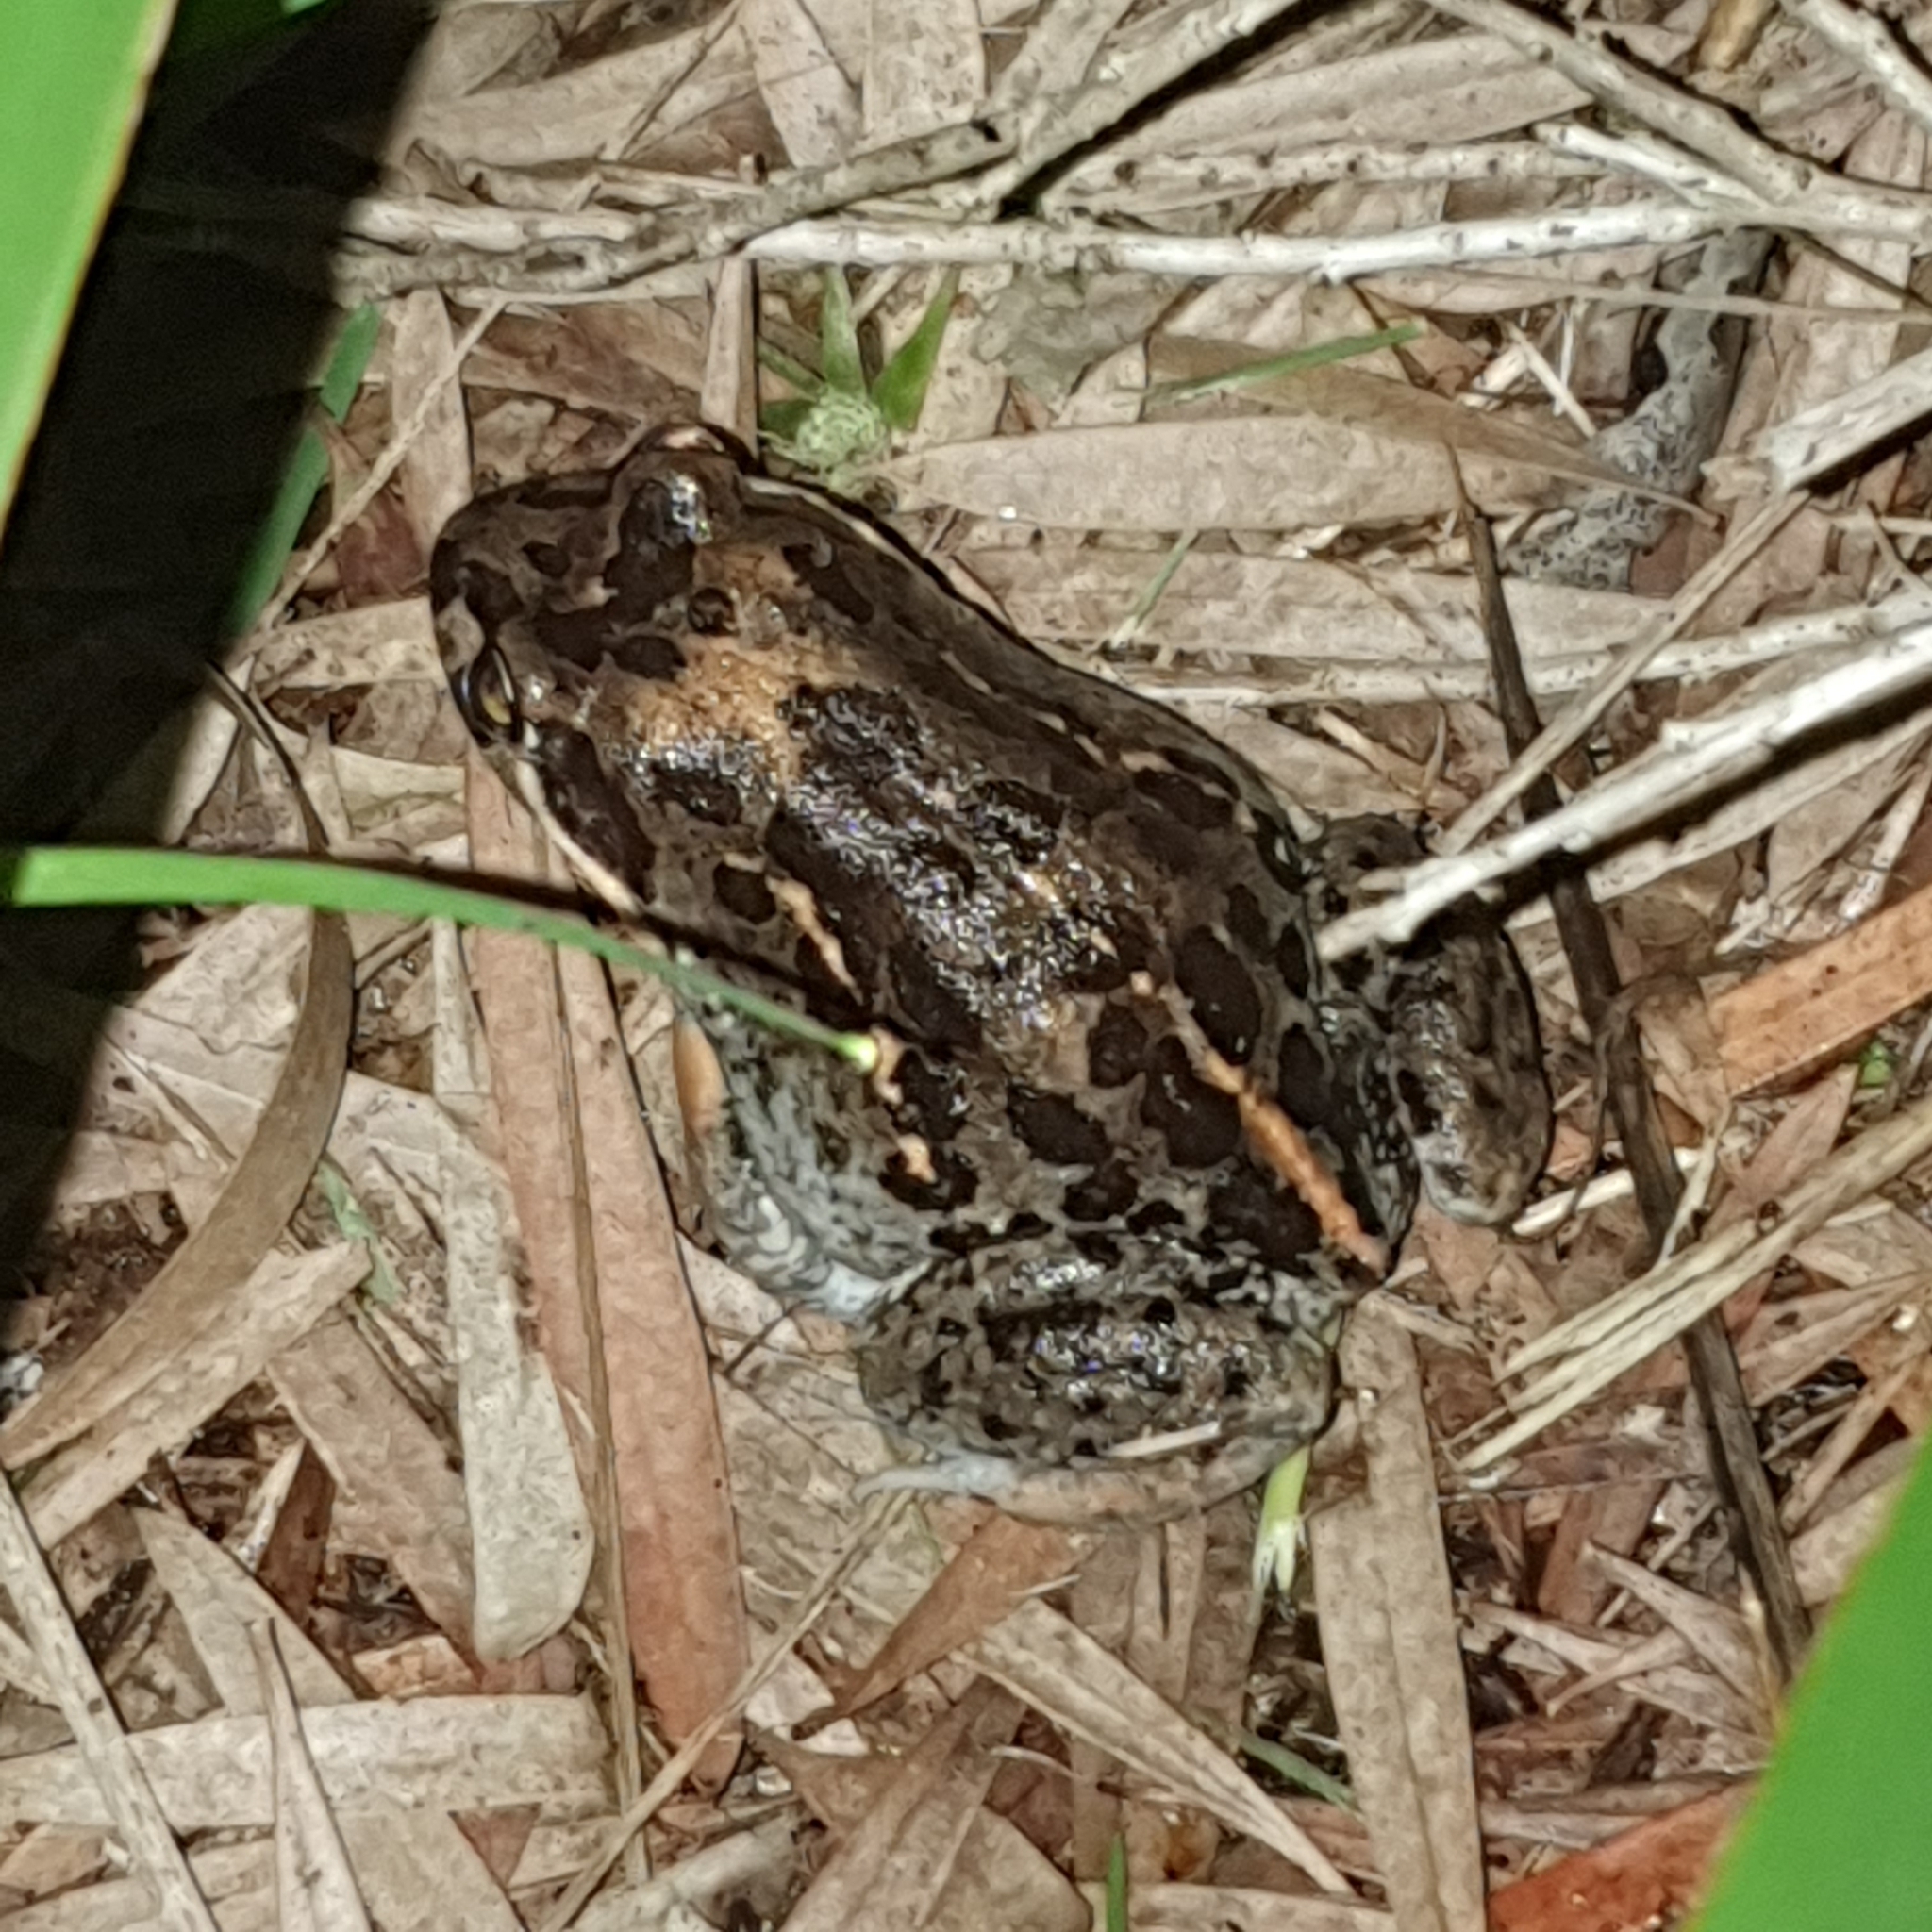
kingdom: Animalia
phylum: Chordata
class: Amphibia
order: Anura
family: Limnodynastidae
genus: Limnodynastes
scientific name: Limnodynastes salmini
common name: Salmon-striped frog
